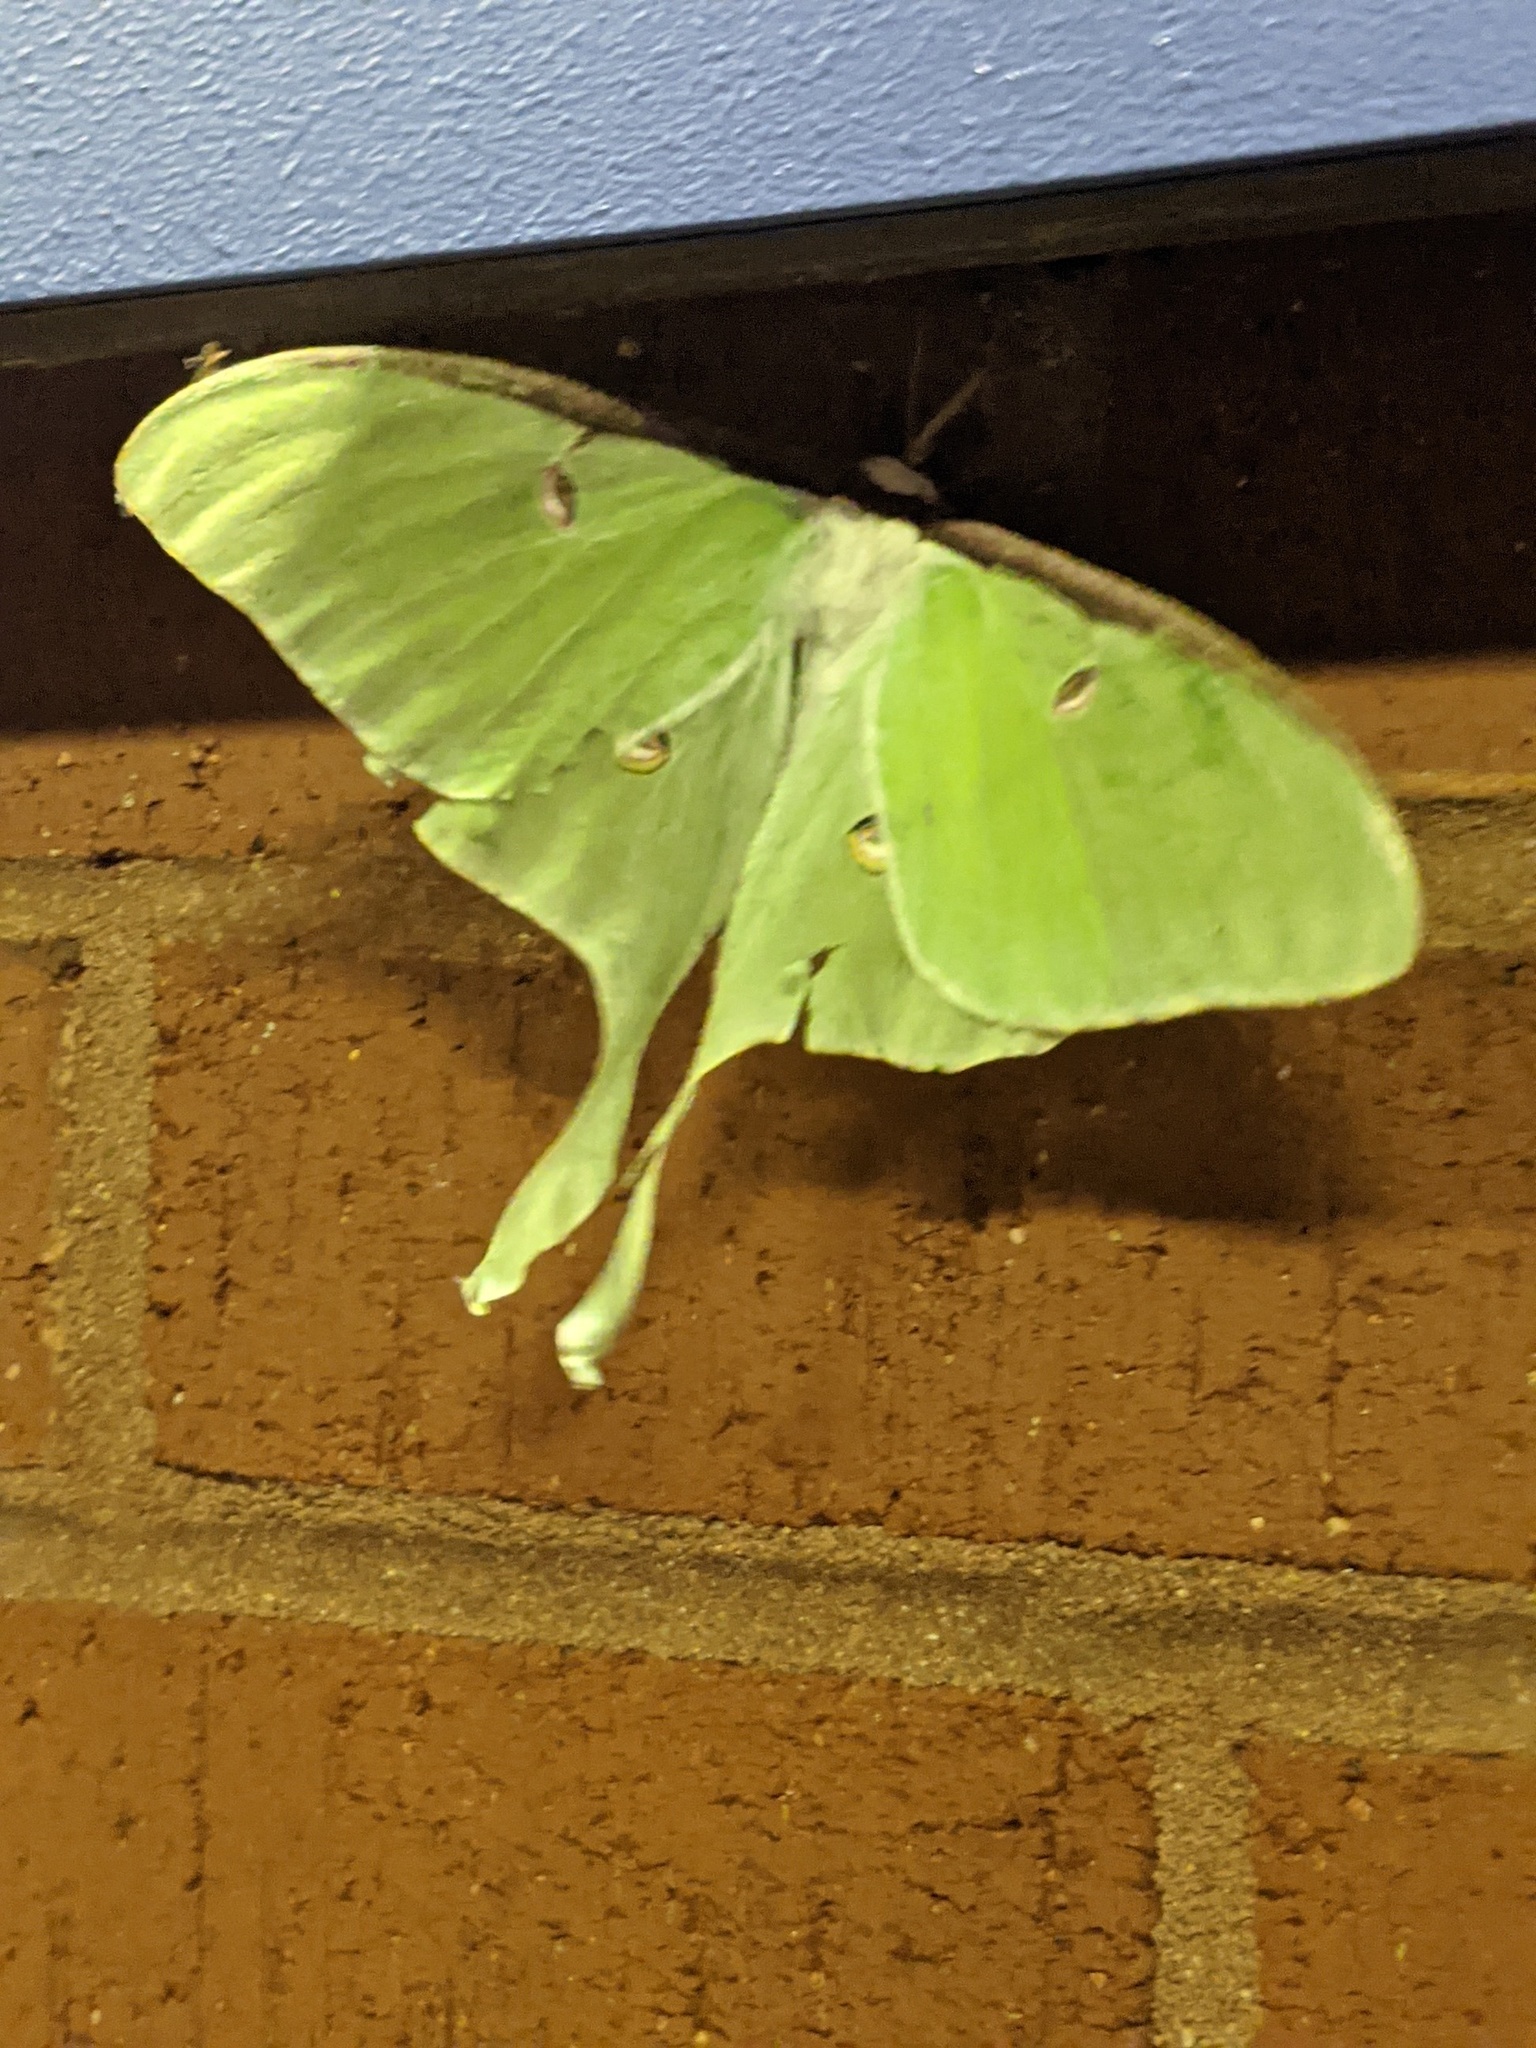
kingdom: Animalia
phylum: Arthropoda
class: Insecta
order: Lepidoptera
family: Saturniidae
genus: Actias
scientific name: Actias luna
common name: Luna moth
